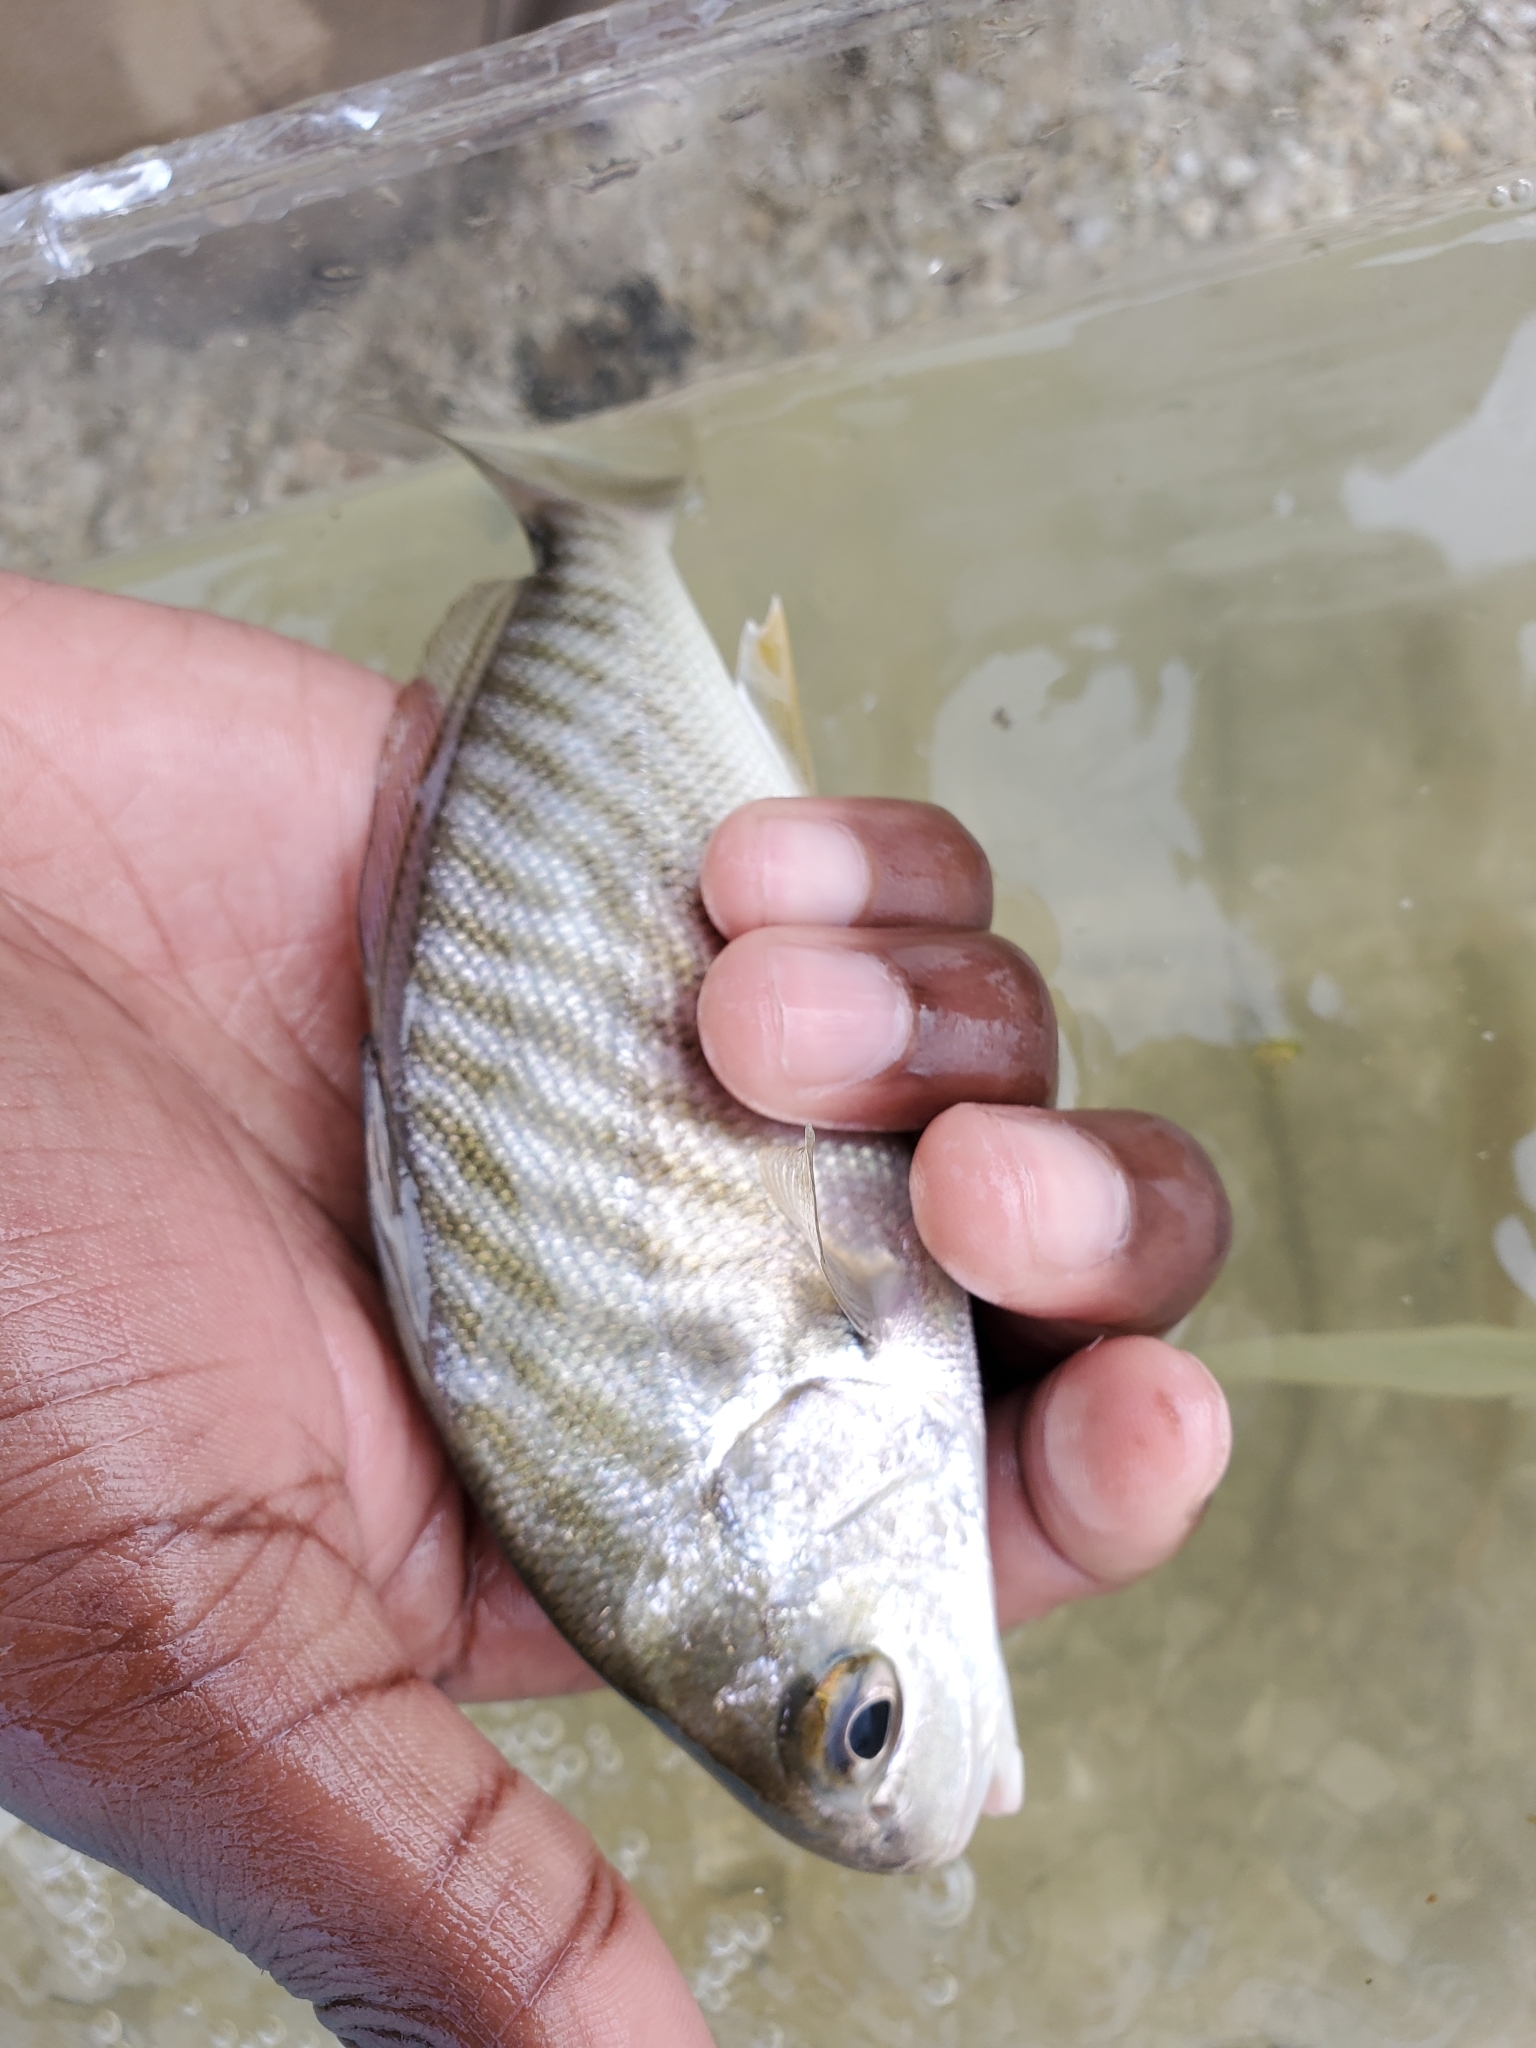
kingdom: Animalia
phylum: Chordata
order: Perciformes
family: Sciaenidae
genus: Leiostomus
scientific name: Leiostomus xanthurus
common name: Spot
